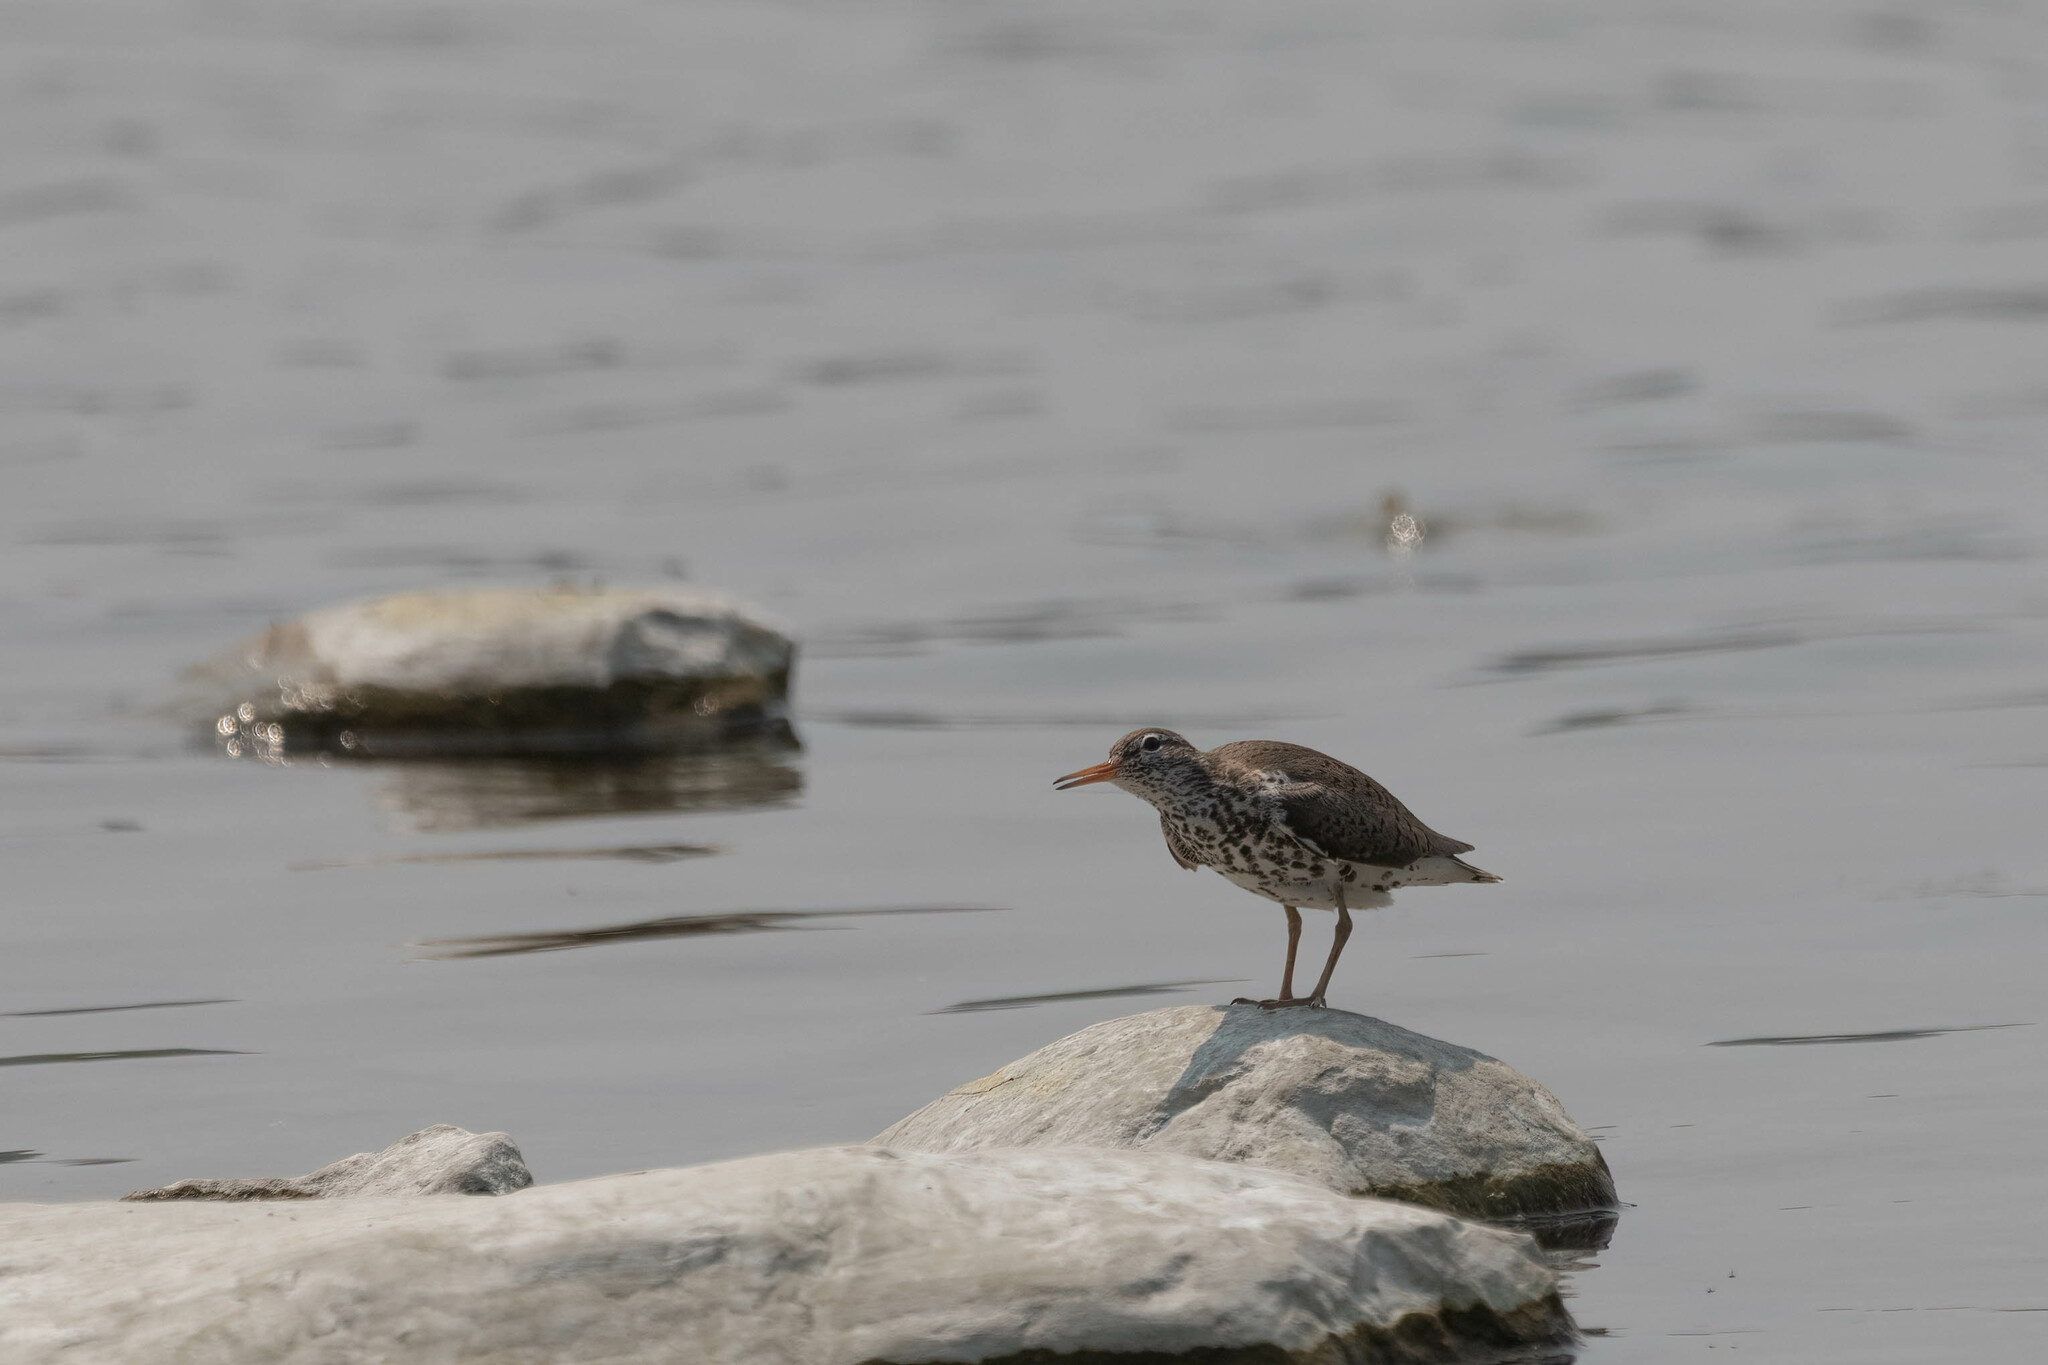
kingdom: Animalia
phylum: Chordata
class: Aves
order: Charadriiformes
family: Scolopacidae
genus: Actitis
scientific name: Actitis macularius
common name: Spotted sandpiper
